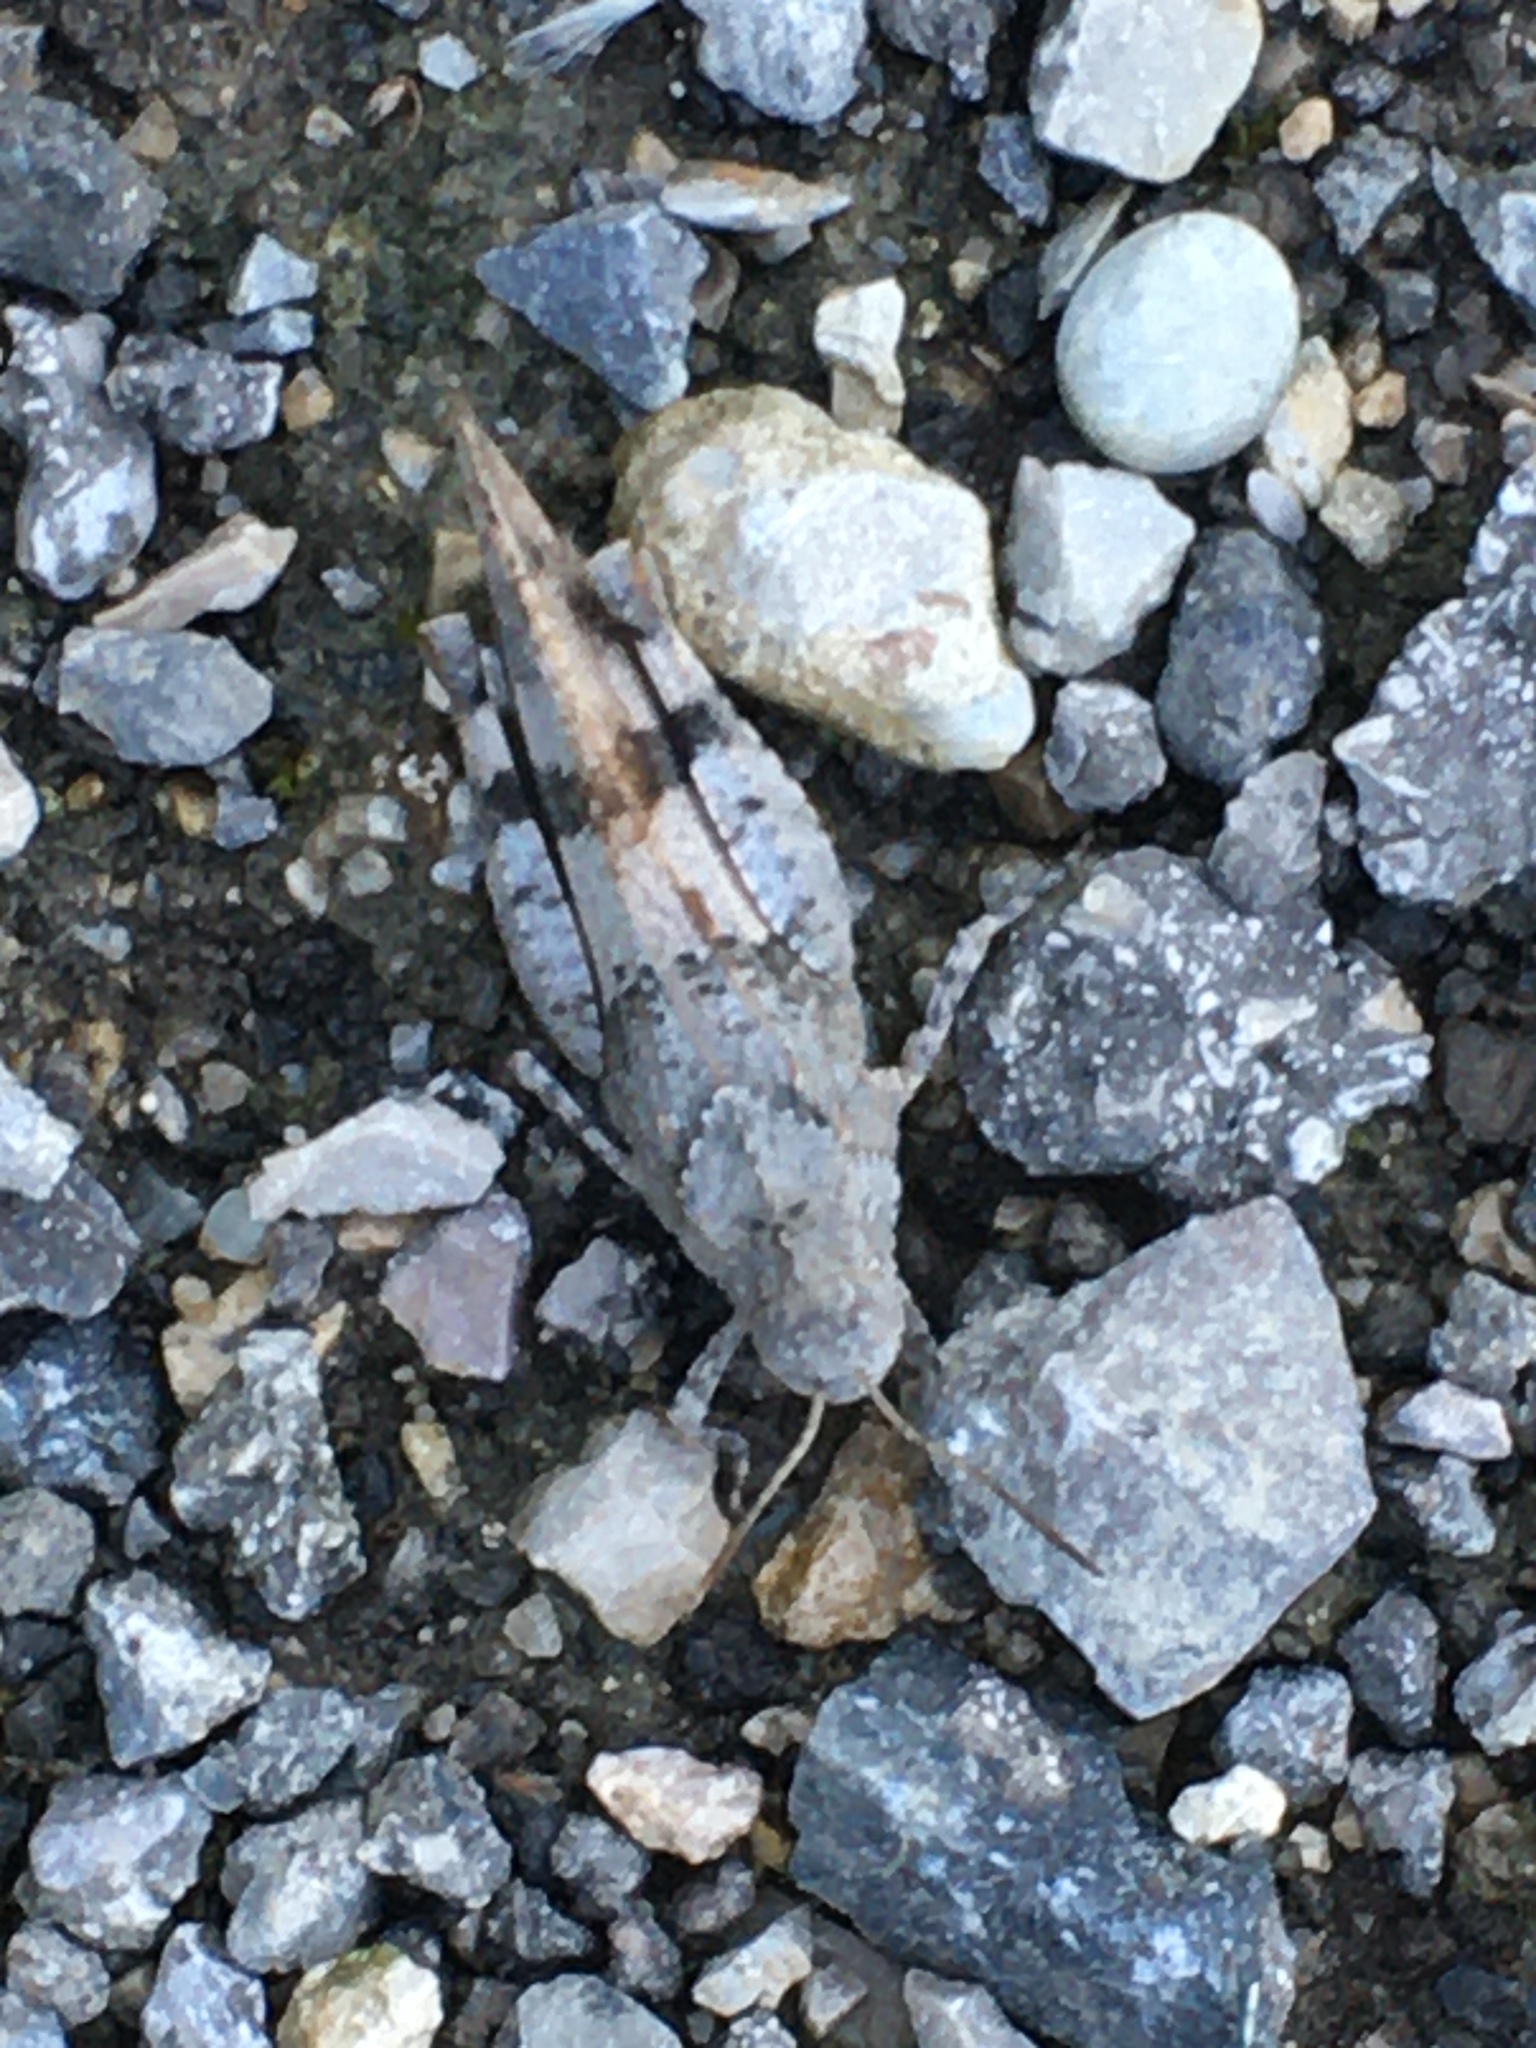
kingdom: Animalia
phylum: Arthropoda
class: Insecta
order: Orthoptera
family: Acrididae
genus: Oedipoda
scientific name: Oedipoda caerulescens
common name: Blue-winged grasshopper
